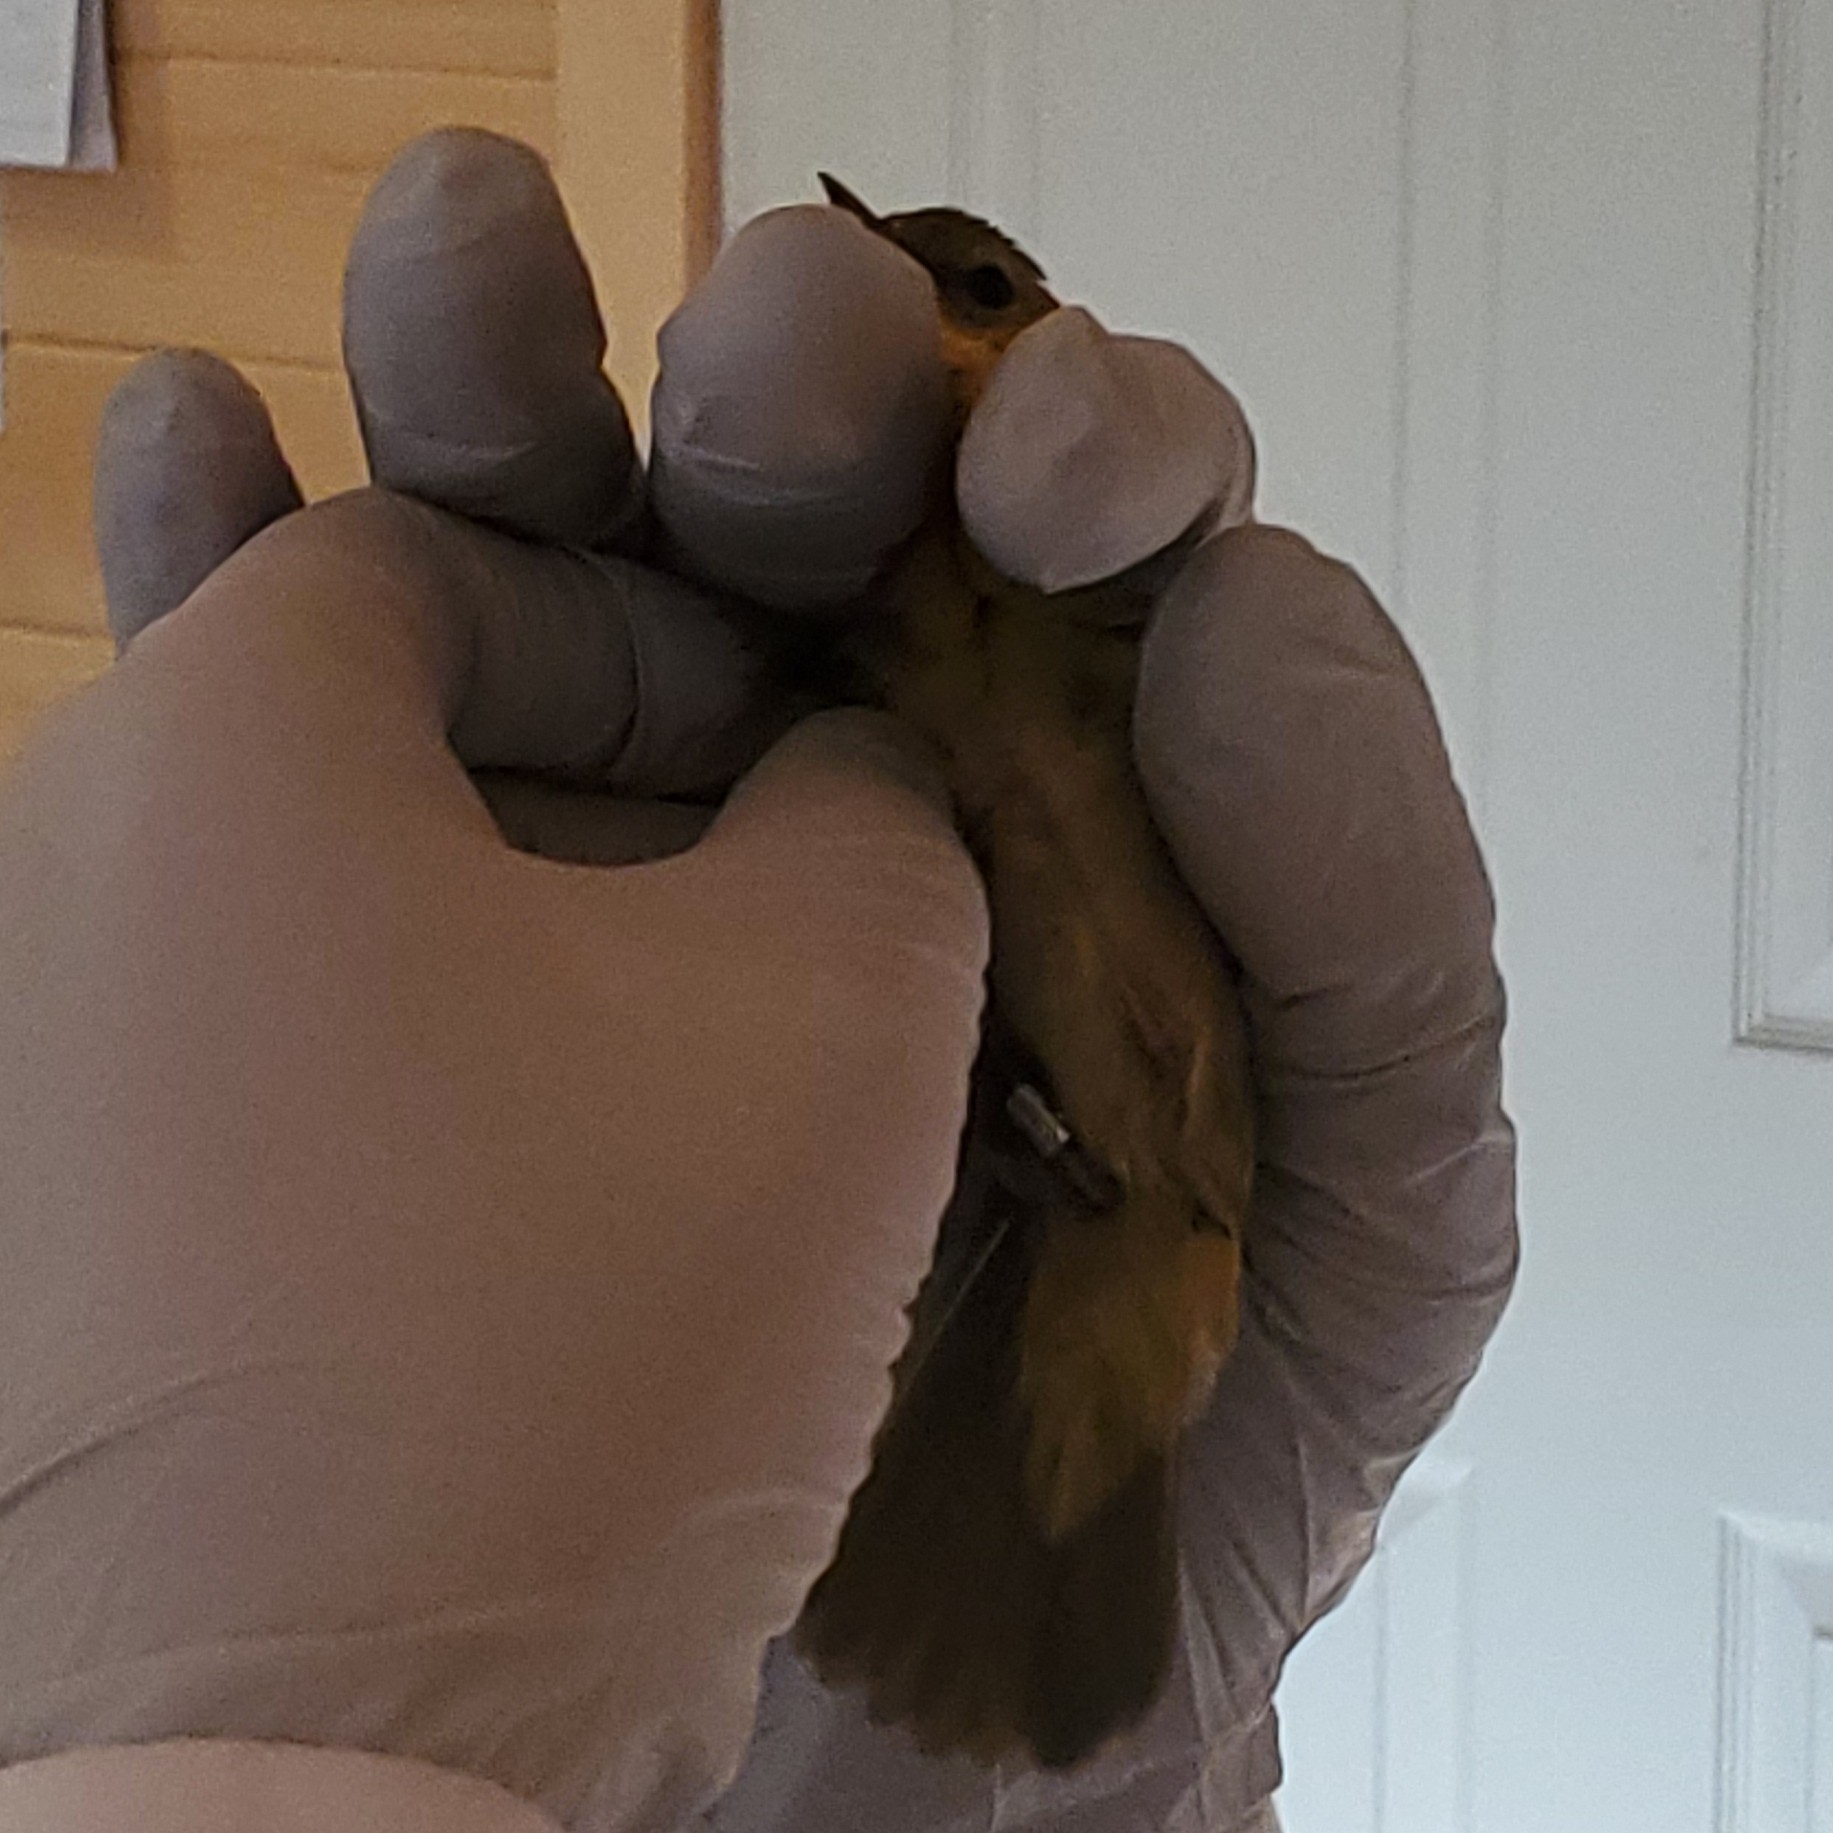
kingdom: Animalia
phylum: Chordata
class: Aves
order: Passeriformes
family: Parulidae
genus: Geothlypis
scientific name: Geothlypis trichas
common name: Common yellowthroat
